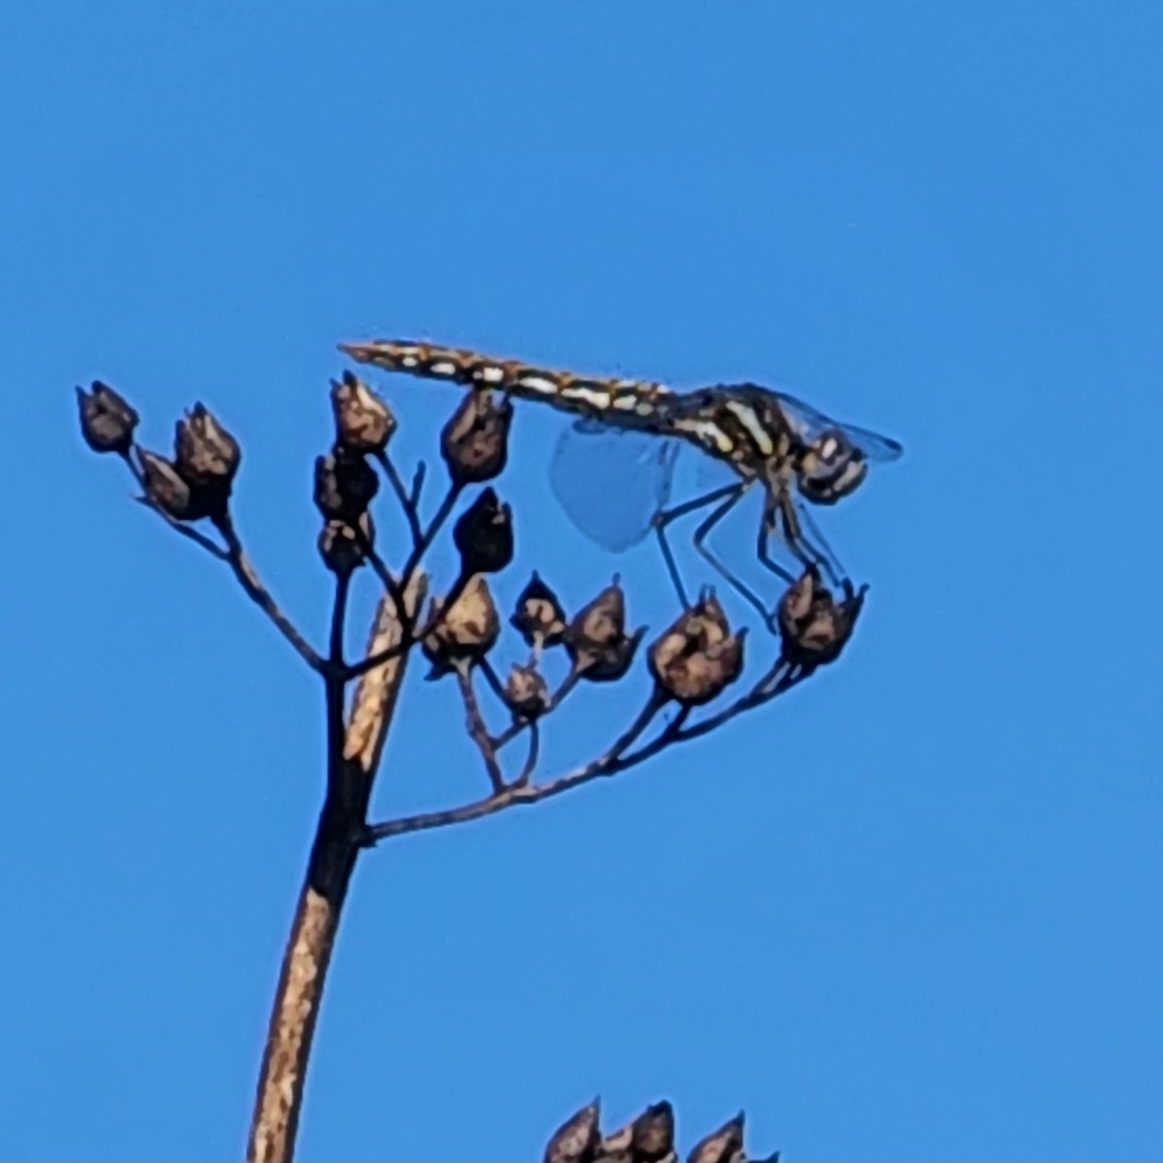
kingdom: Animalia
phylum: Arthropoda
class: Insecta
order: Odonata
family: Libellulidae
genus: Sympetrum
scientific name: Sympetrum corruptum
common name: Variegated meadowhawk
